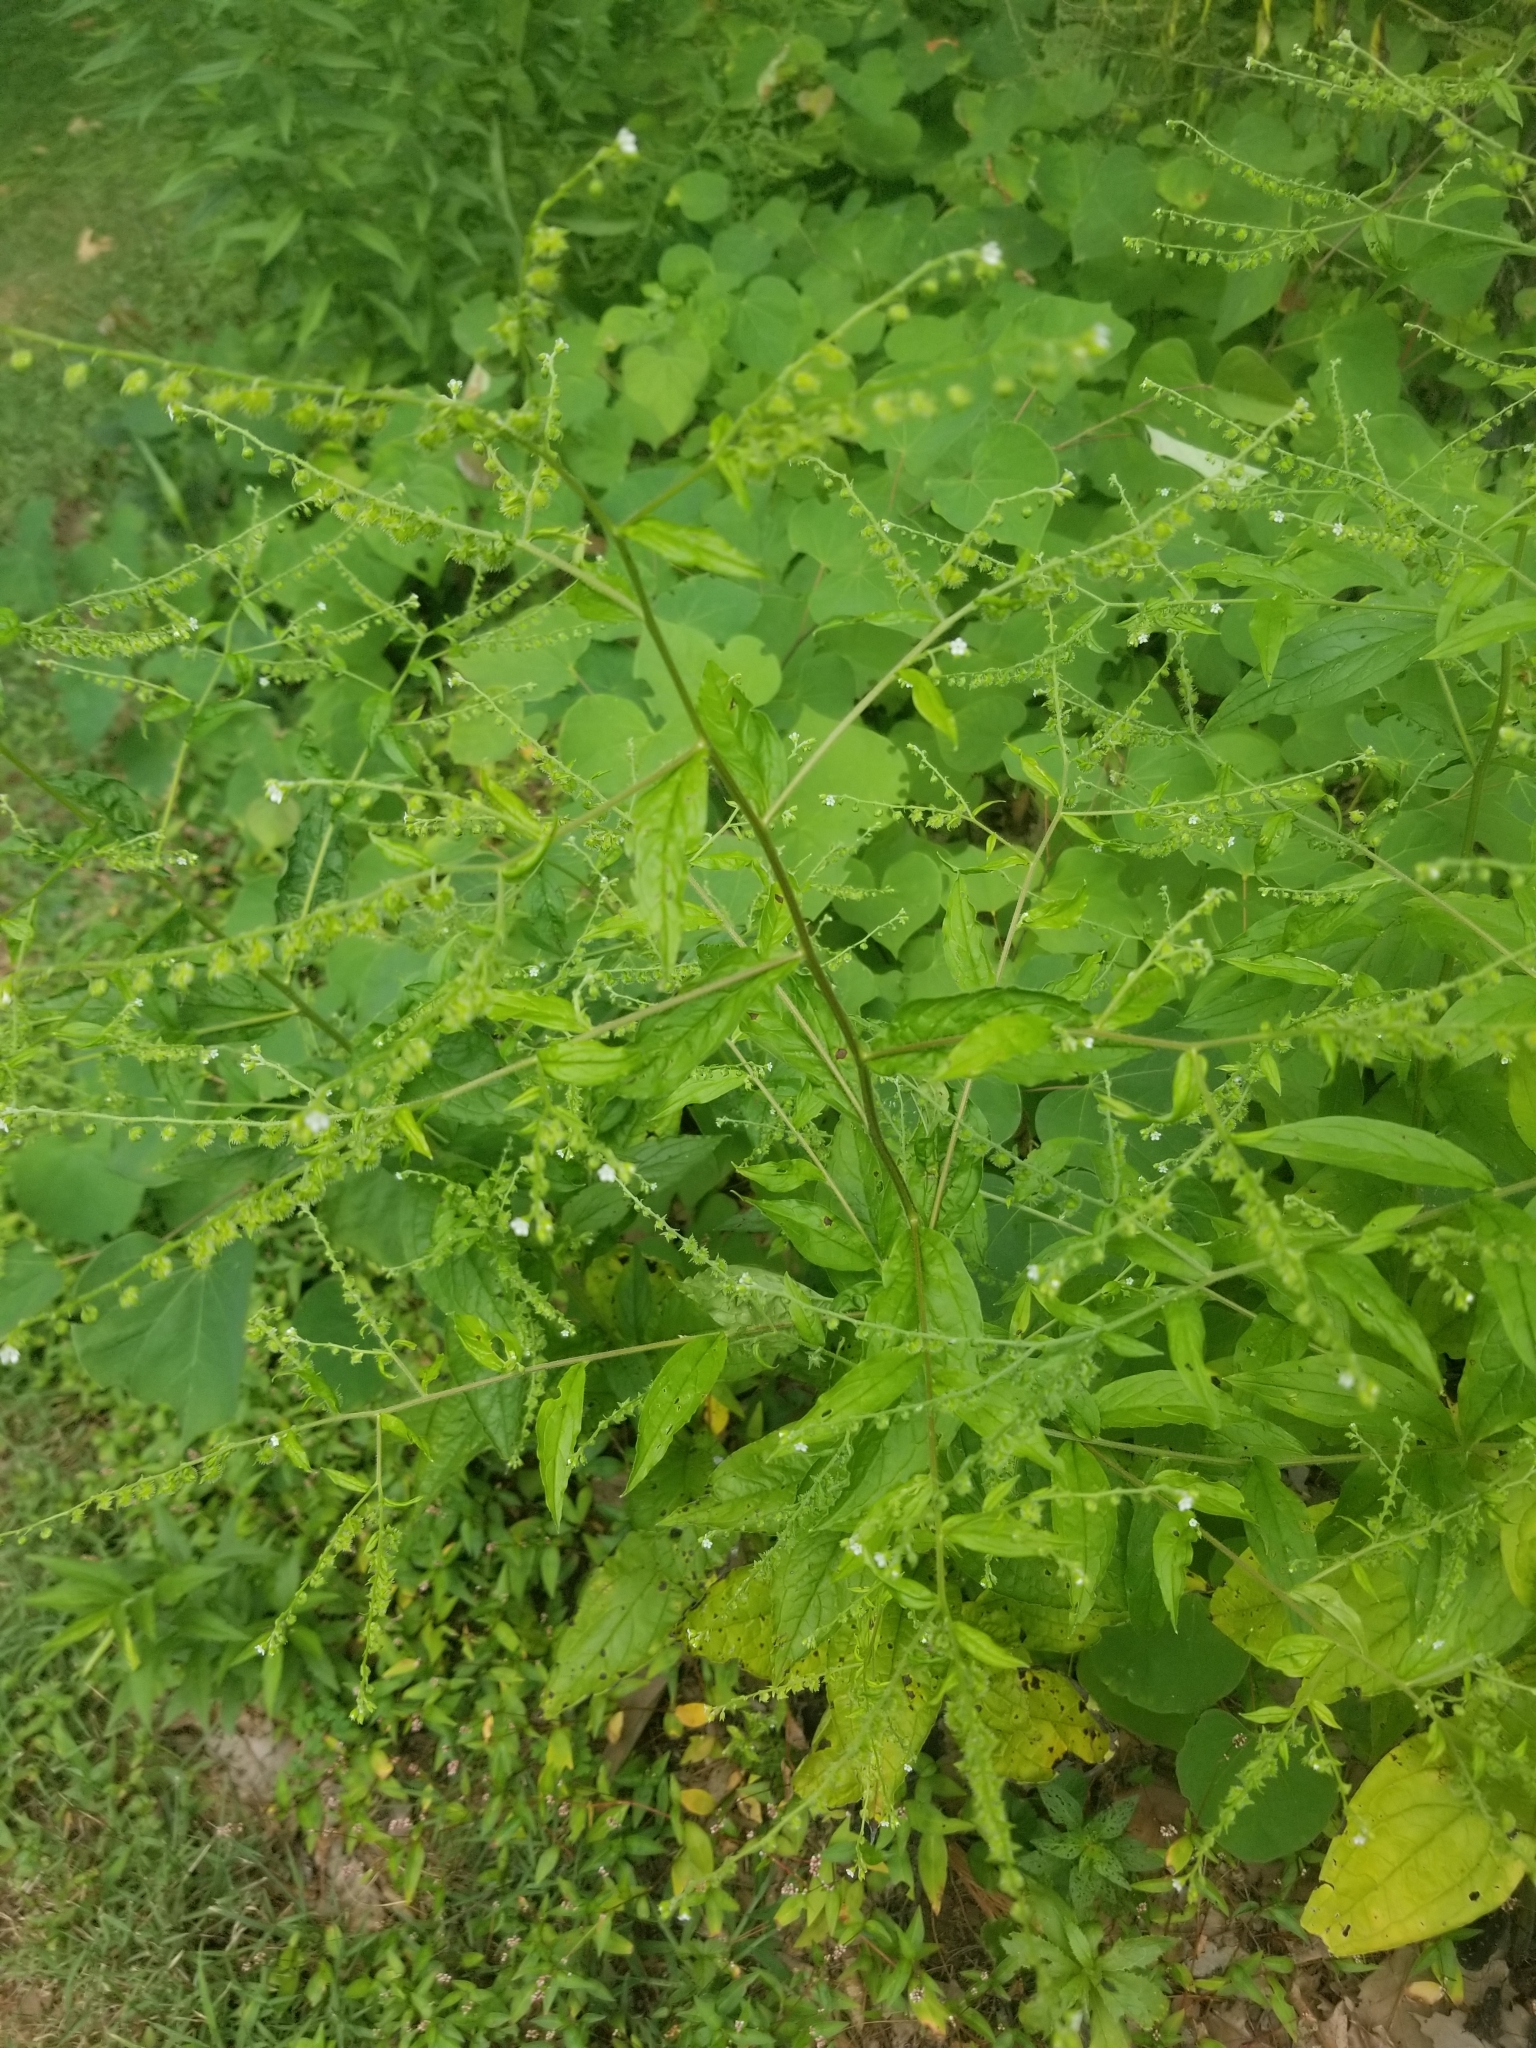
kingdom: Plantae
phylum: Tracheophyta
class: Magnoliopsida
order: Boraginales
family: Boraginaceae
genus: Hackelia
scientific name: Hackelia virginiana
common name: Beggar's-lice
